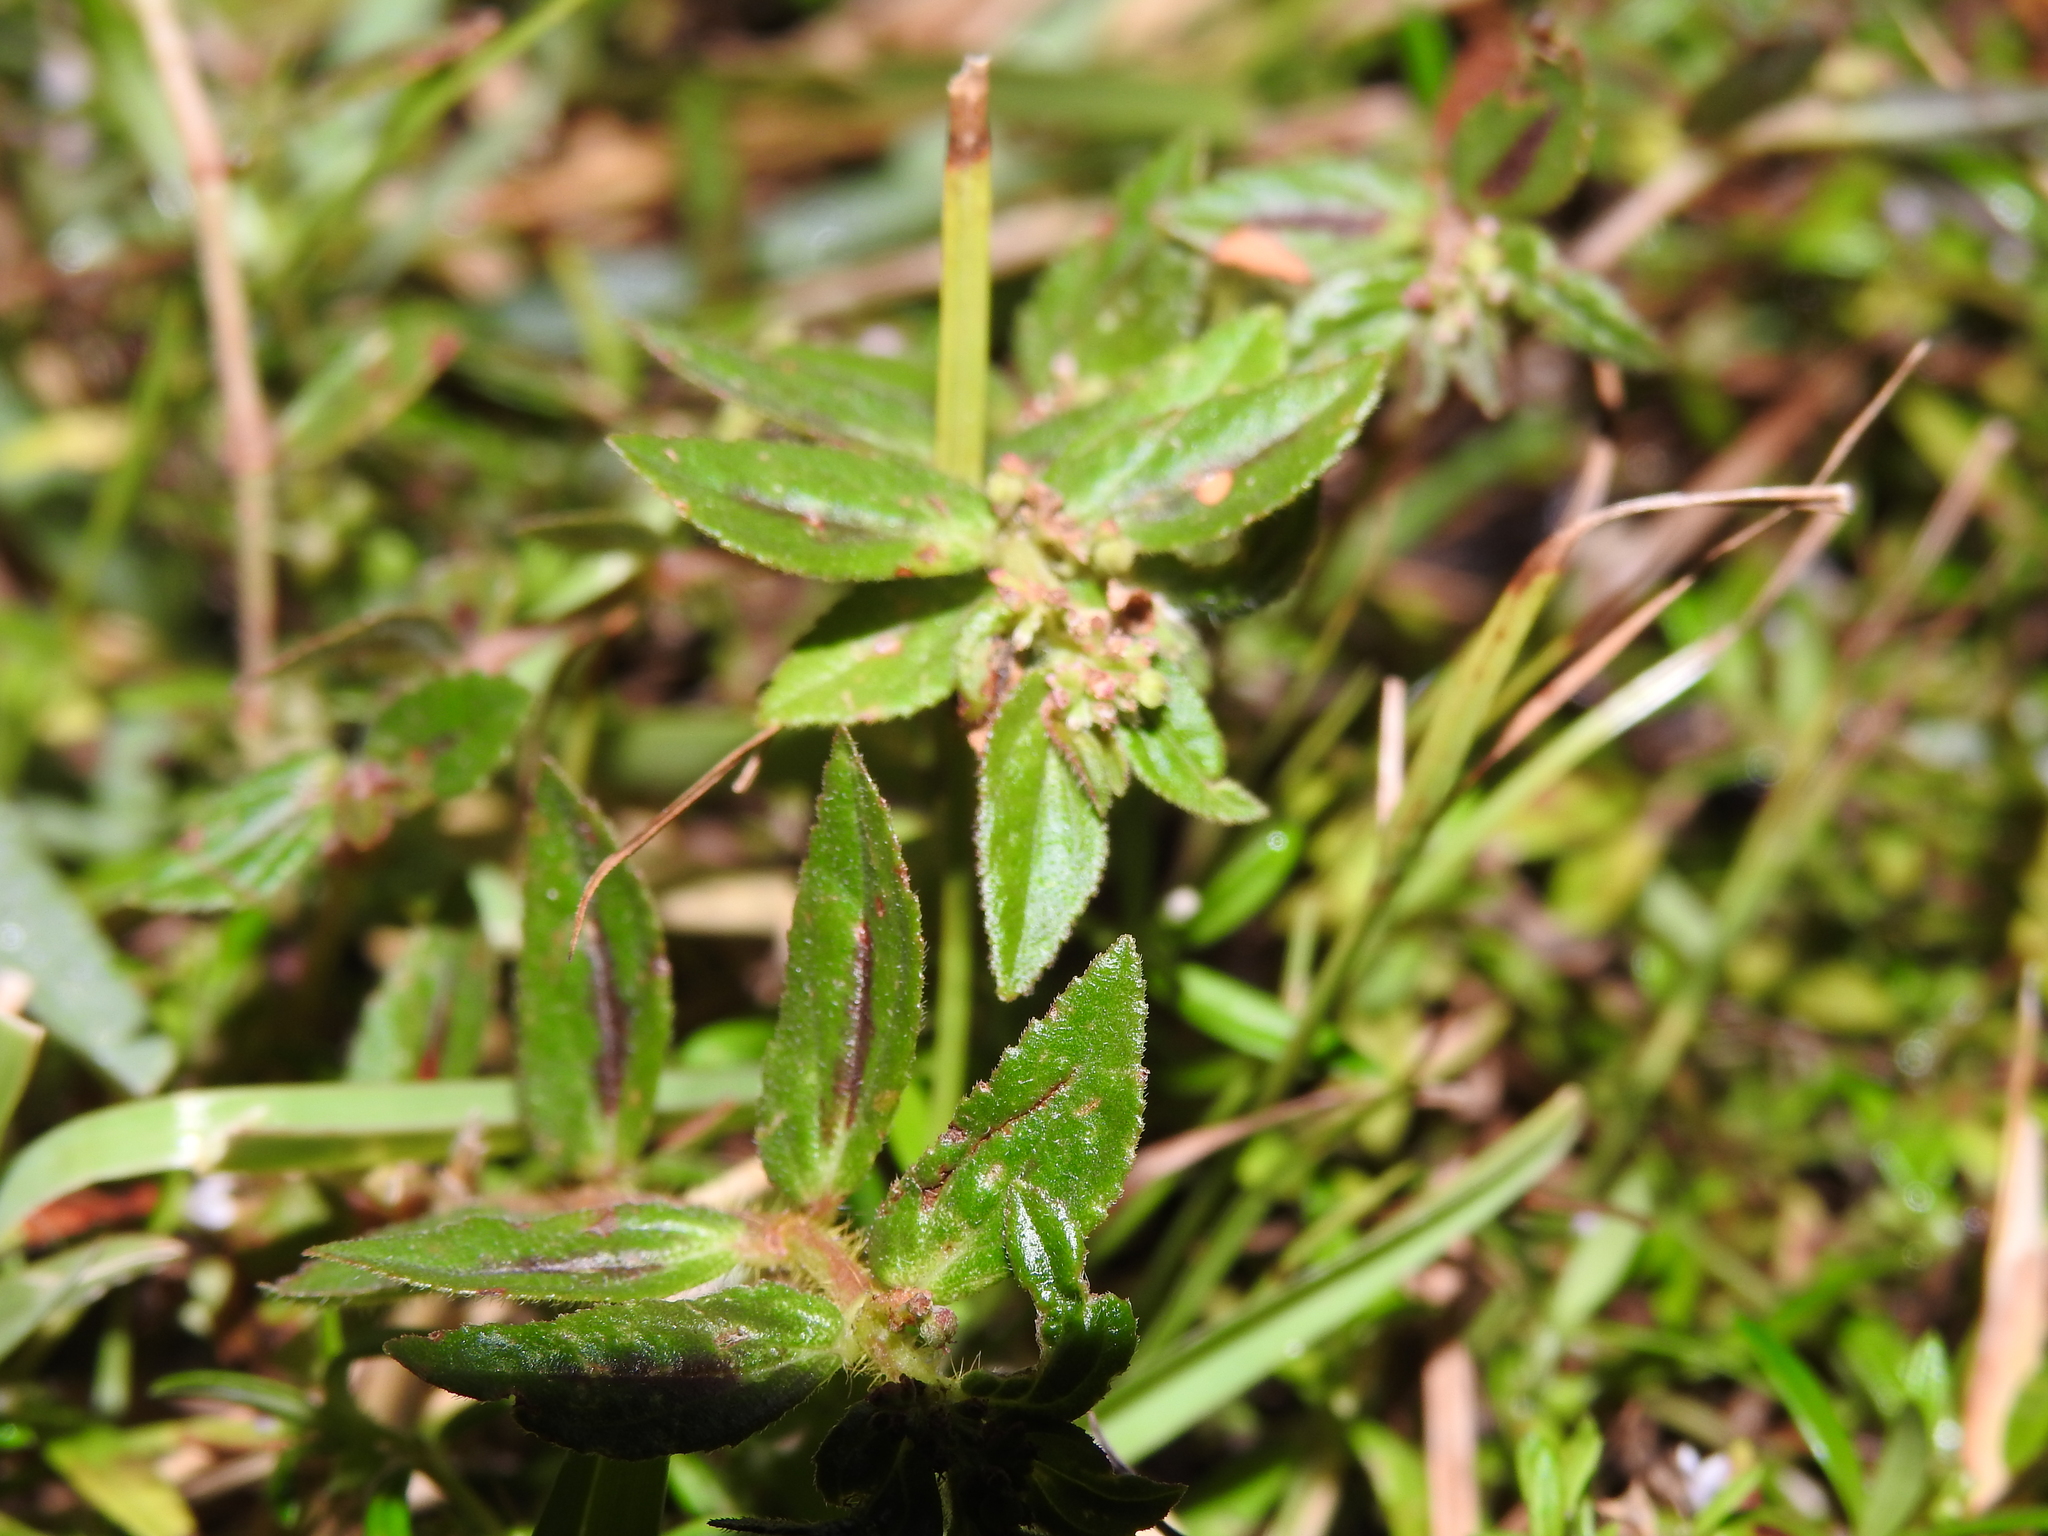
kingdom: Plantae
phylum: Tracheophyta
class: Magnoliopsida
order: Malpighiales
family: Euphorbiaceae
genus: Euphorbia
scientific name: Euphorbia hirta
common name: Pillpod sandmat
